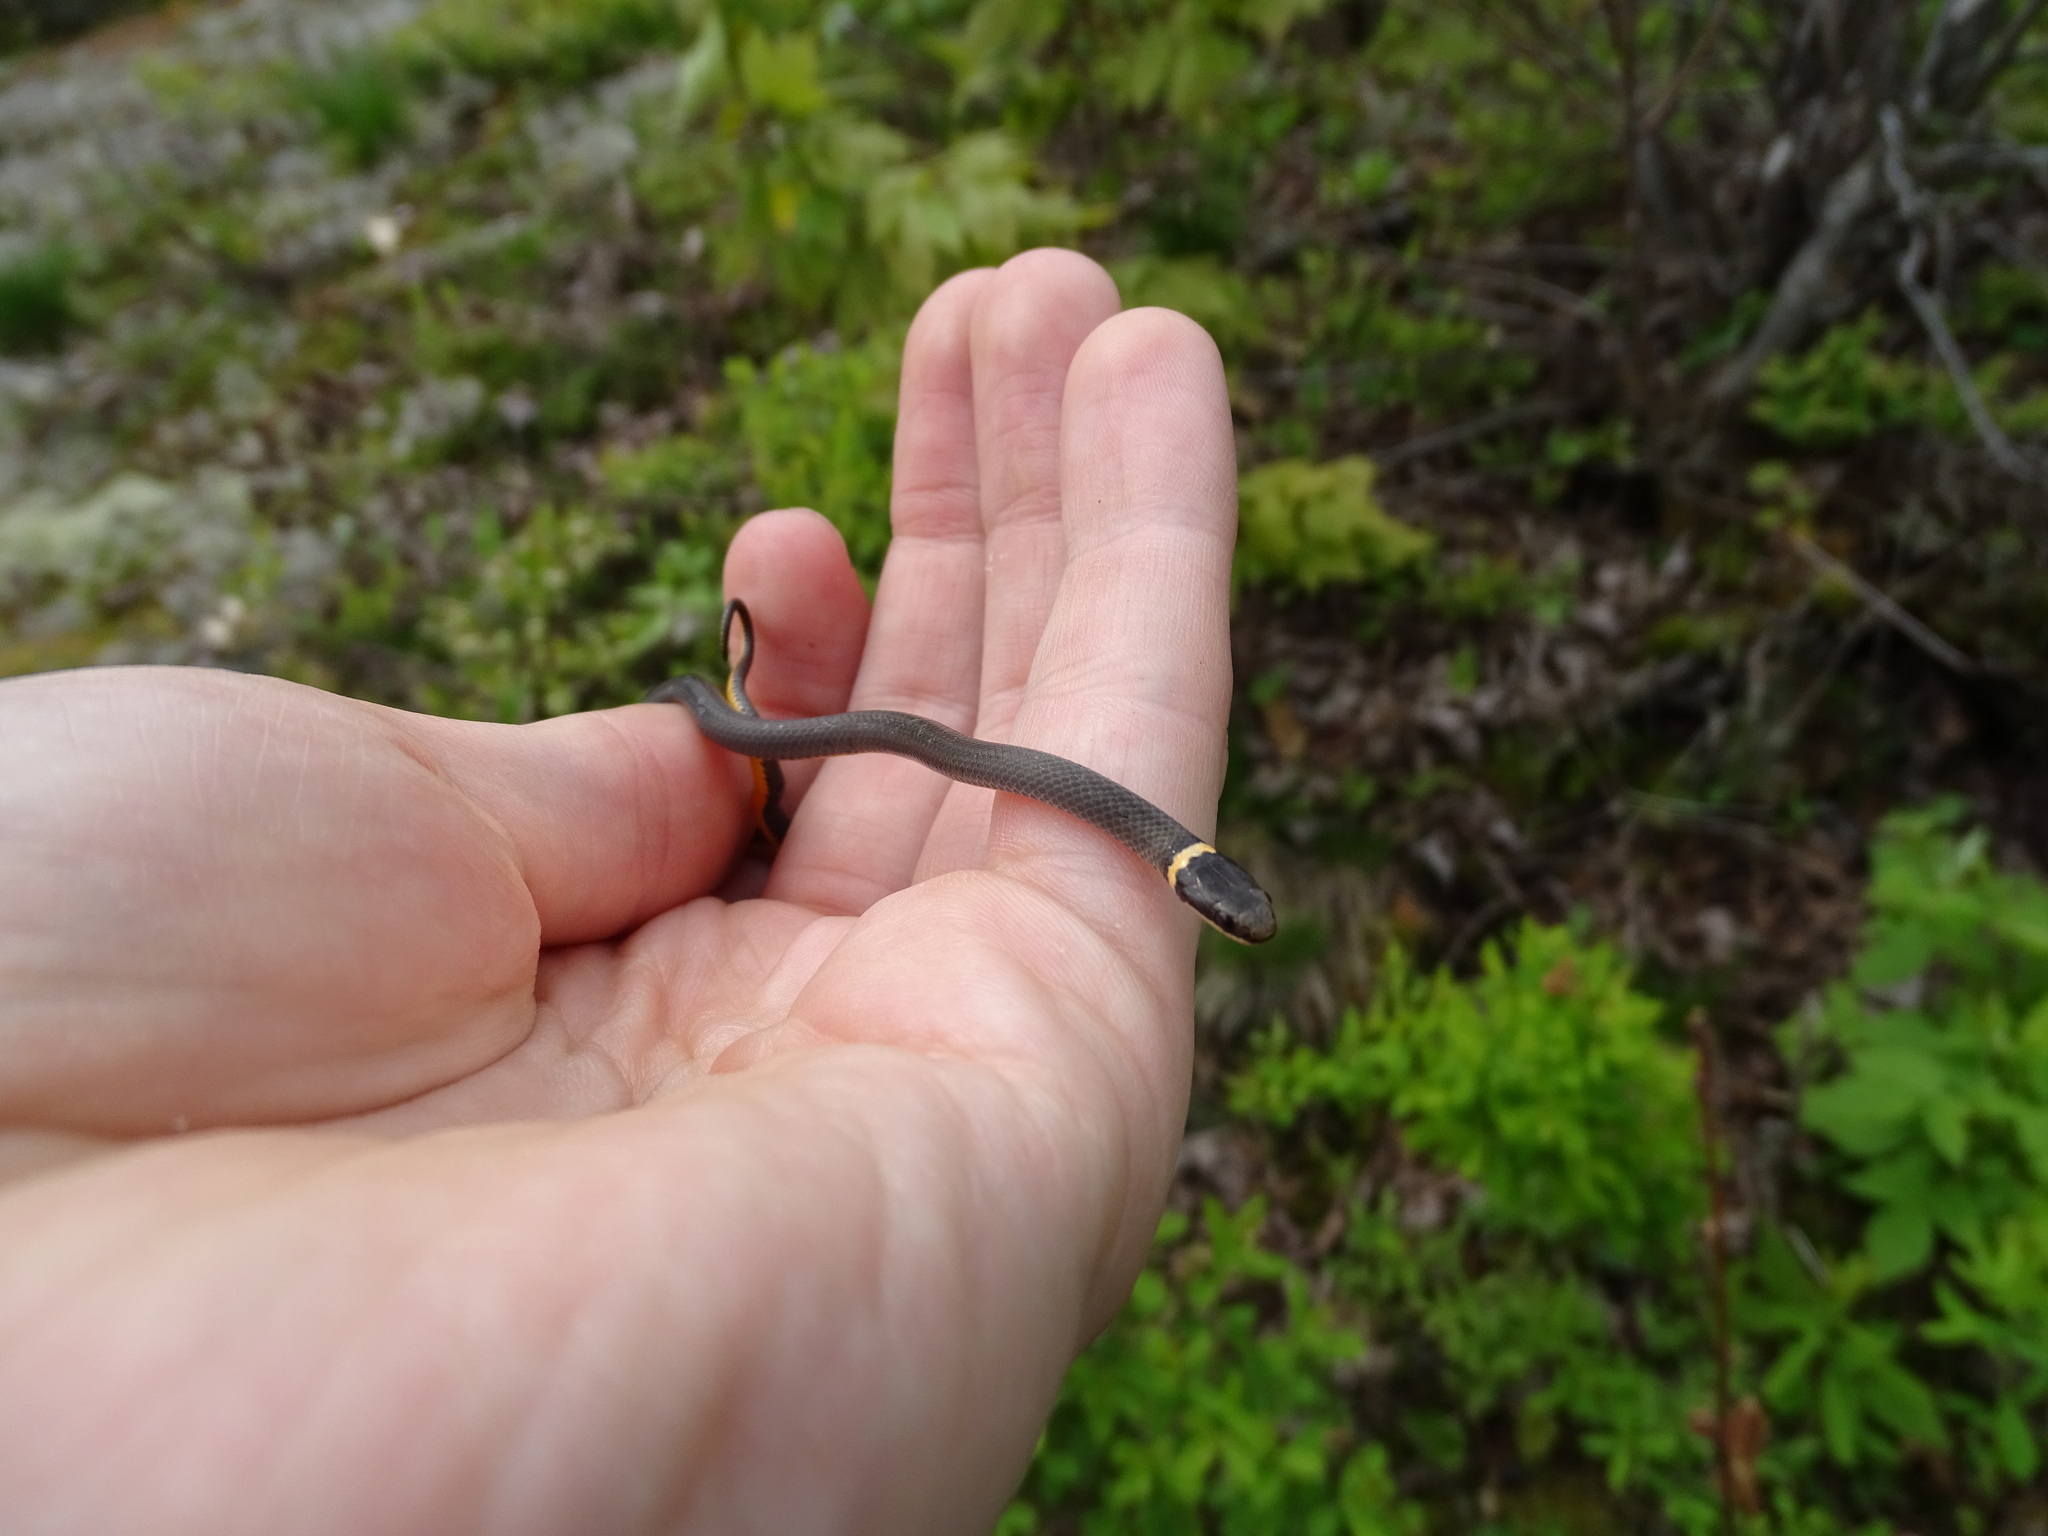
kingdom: Animalia
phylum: Chordata
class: Squamata
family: Colubridae
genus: Diadophis
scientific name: Diadophis punctatus
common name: Ringneck snake
